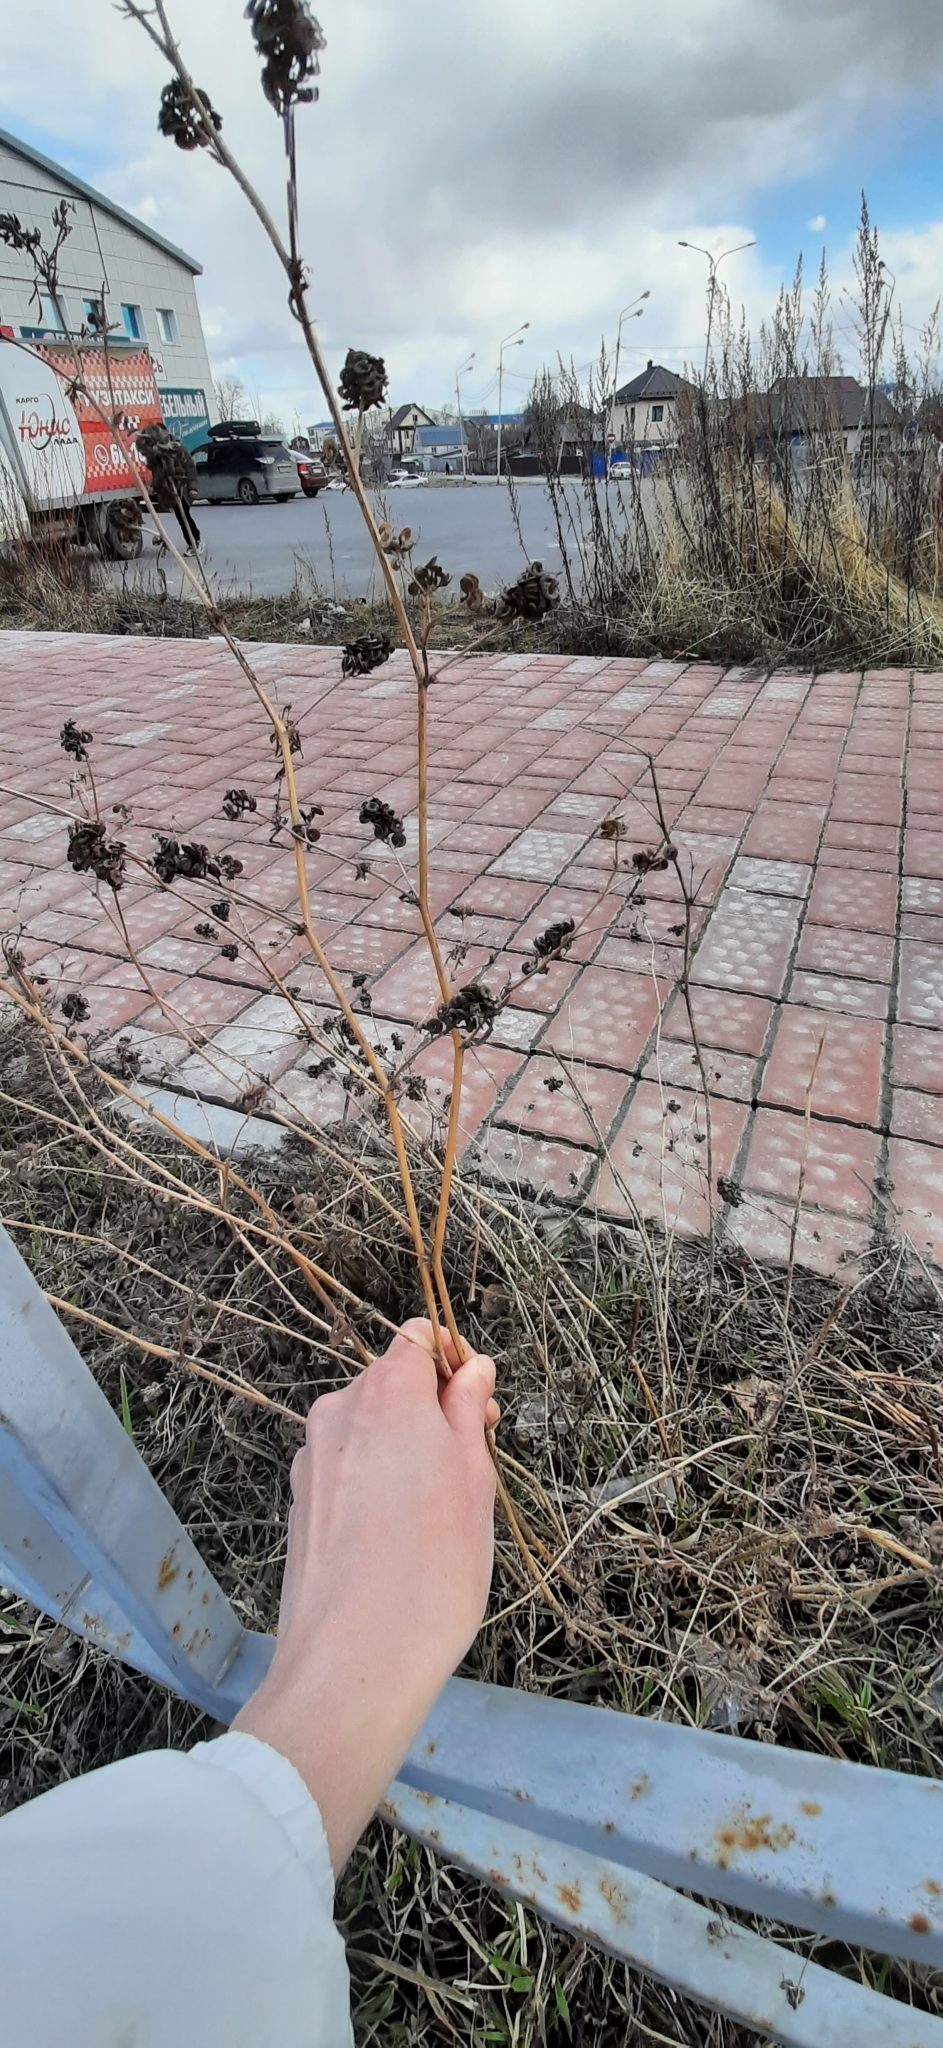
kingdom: Plantae
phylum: Tracheophyta
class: Magnoliopsida
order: Fabales
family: Fabaceae
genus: Medicago
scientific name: Medicago varia
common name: Sand lucerne
